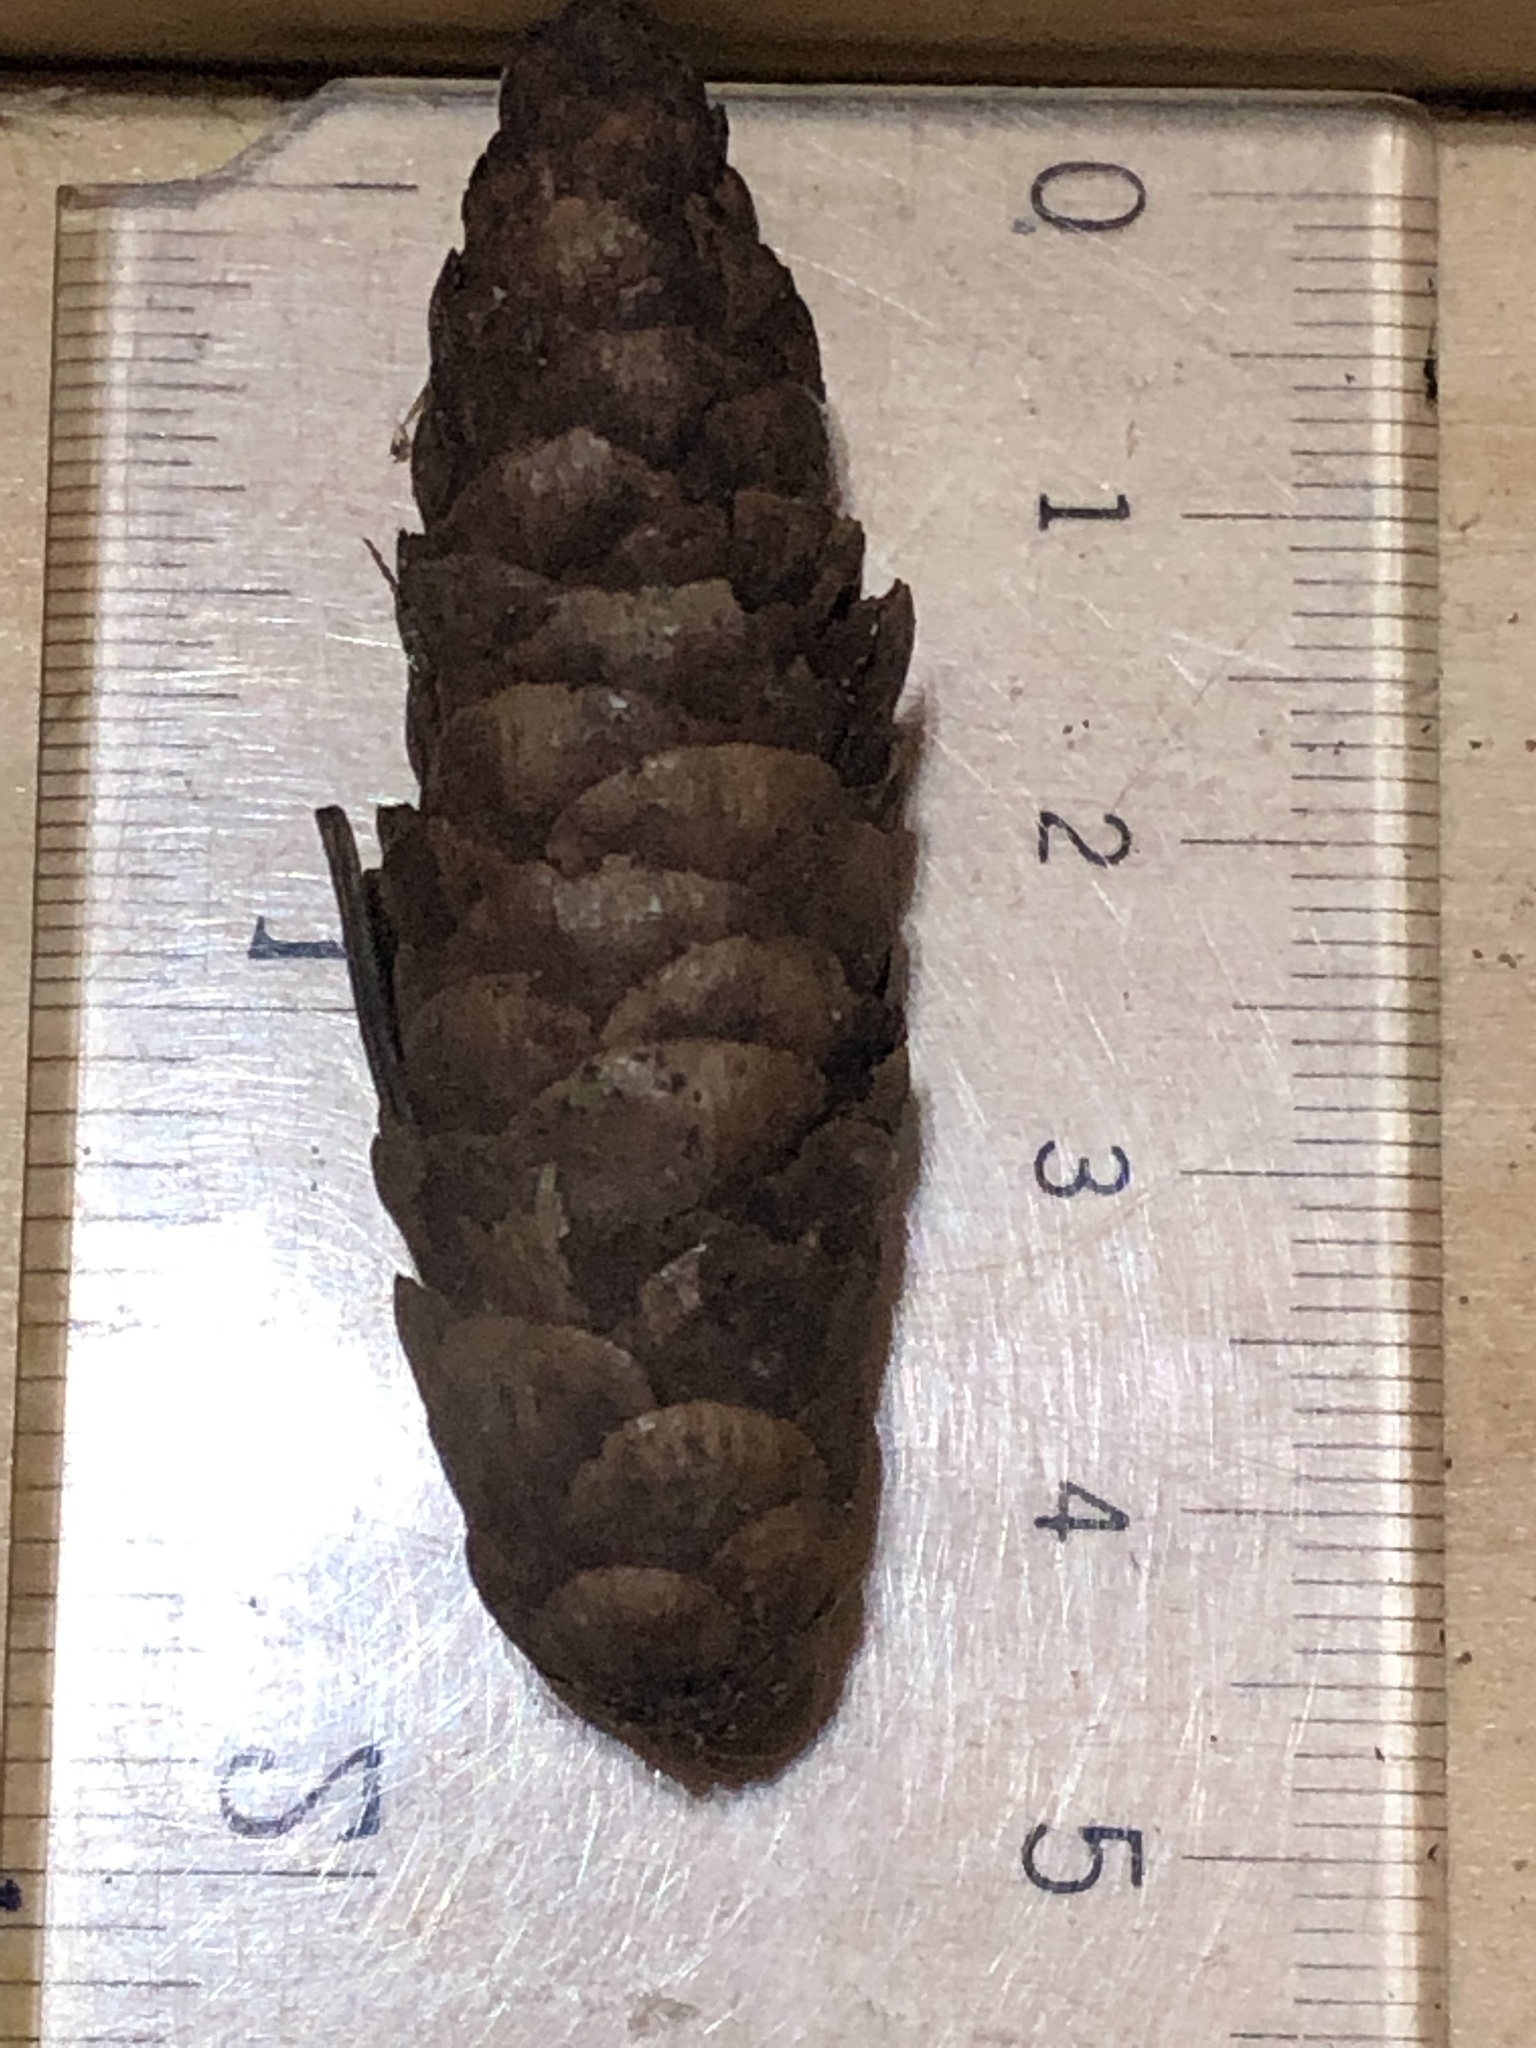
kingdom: Plantae
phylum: Tracheophyta
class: Pinopsida
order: Pinales
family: Pinaceae
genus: Picea
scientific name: Picea glauca
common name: White spruce
